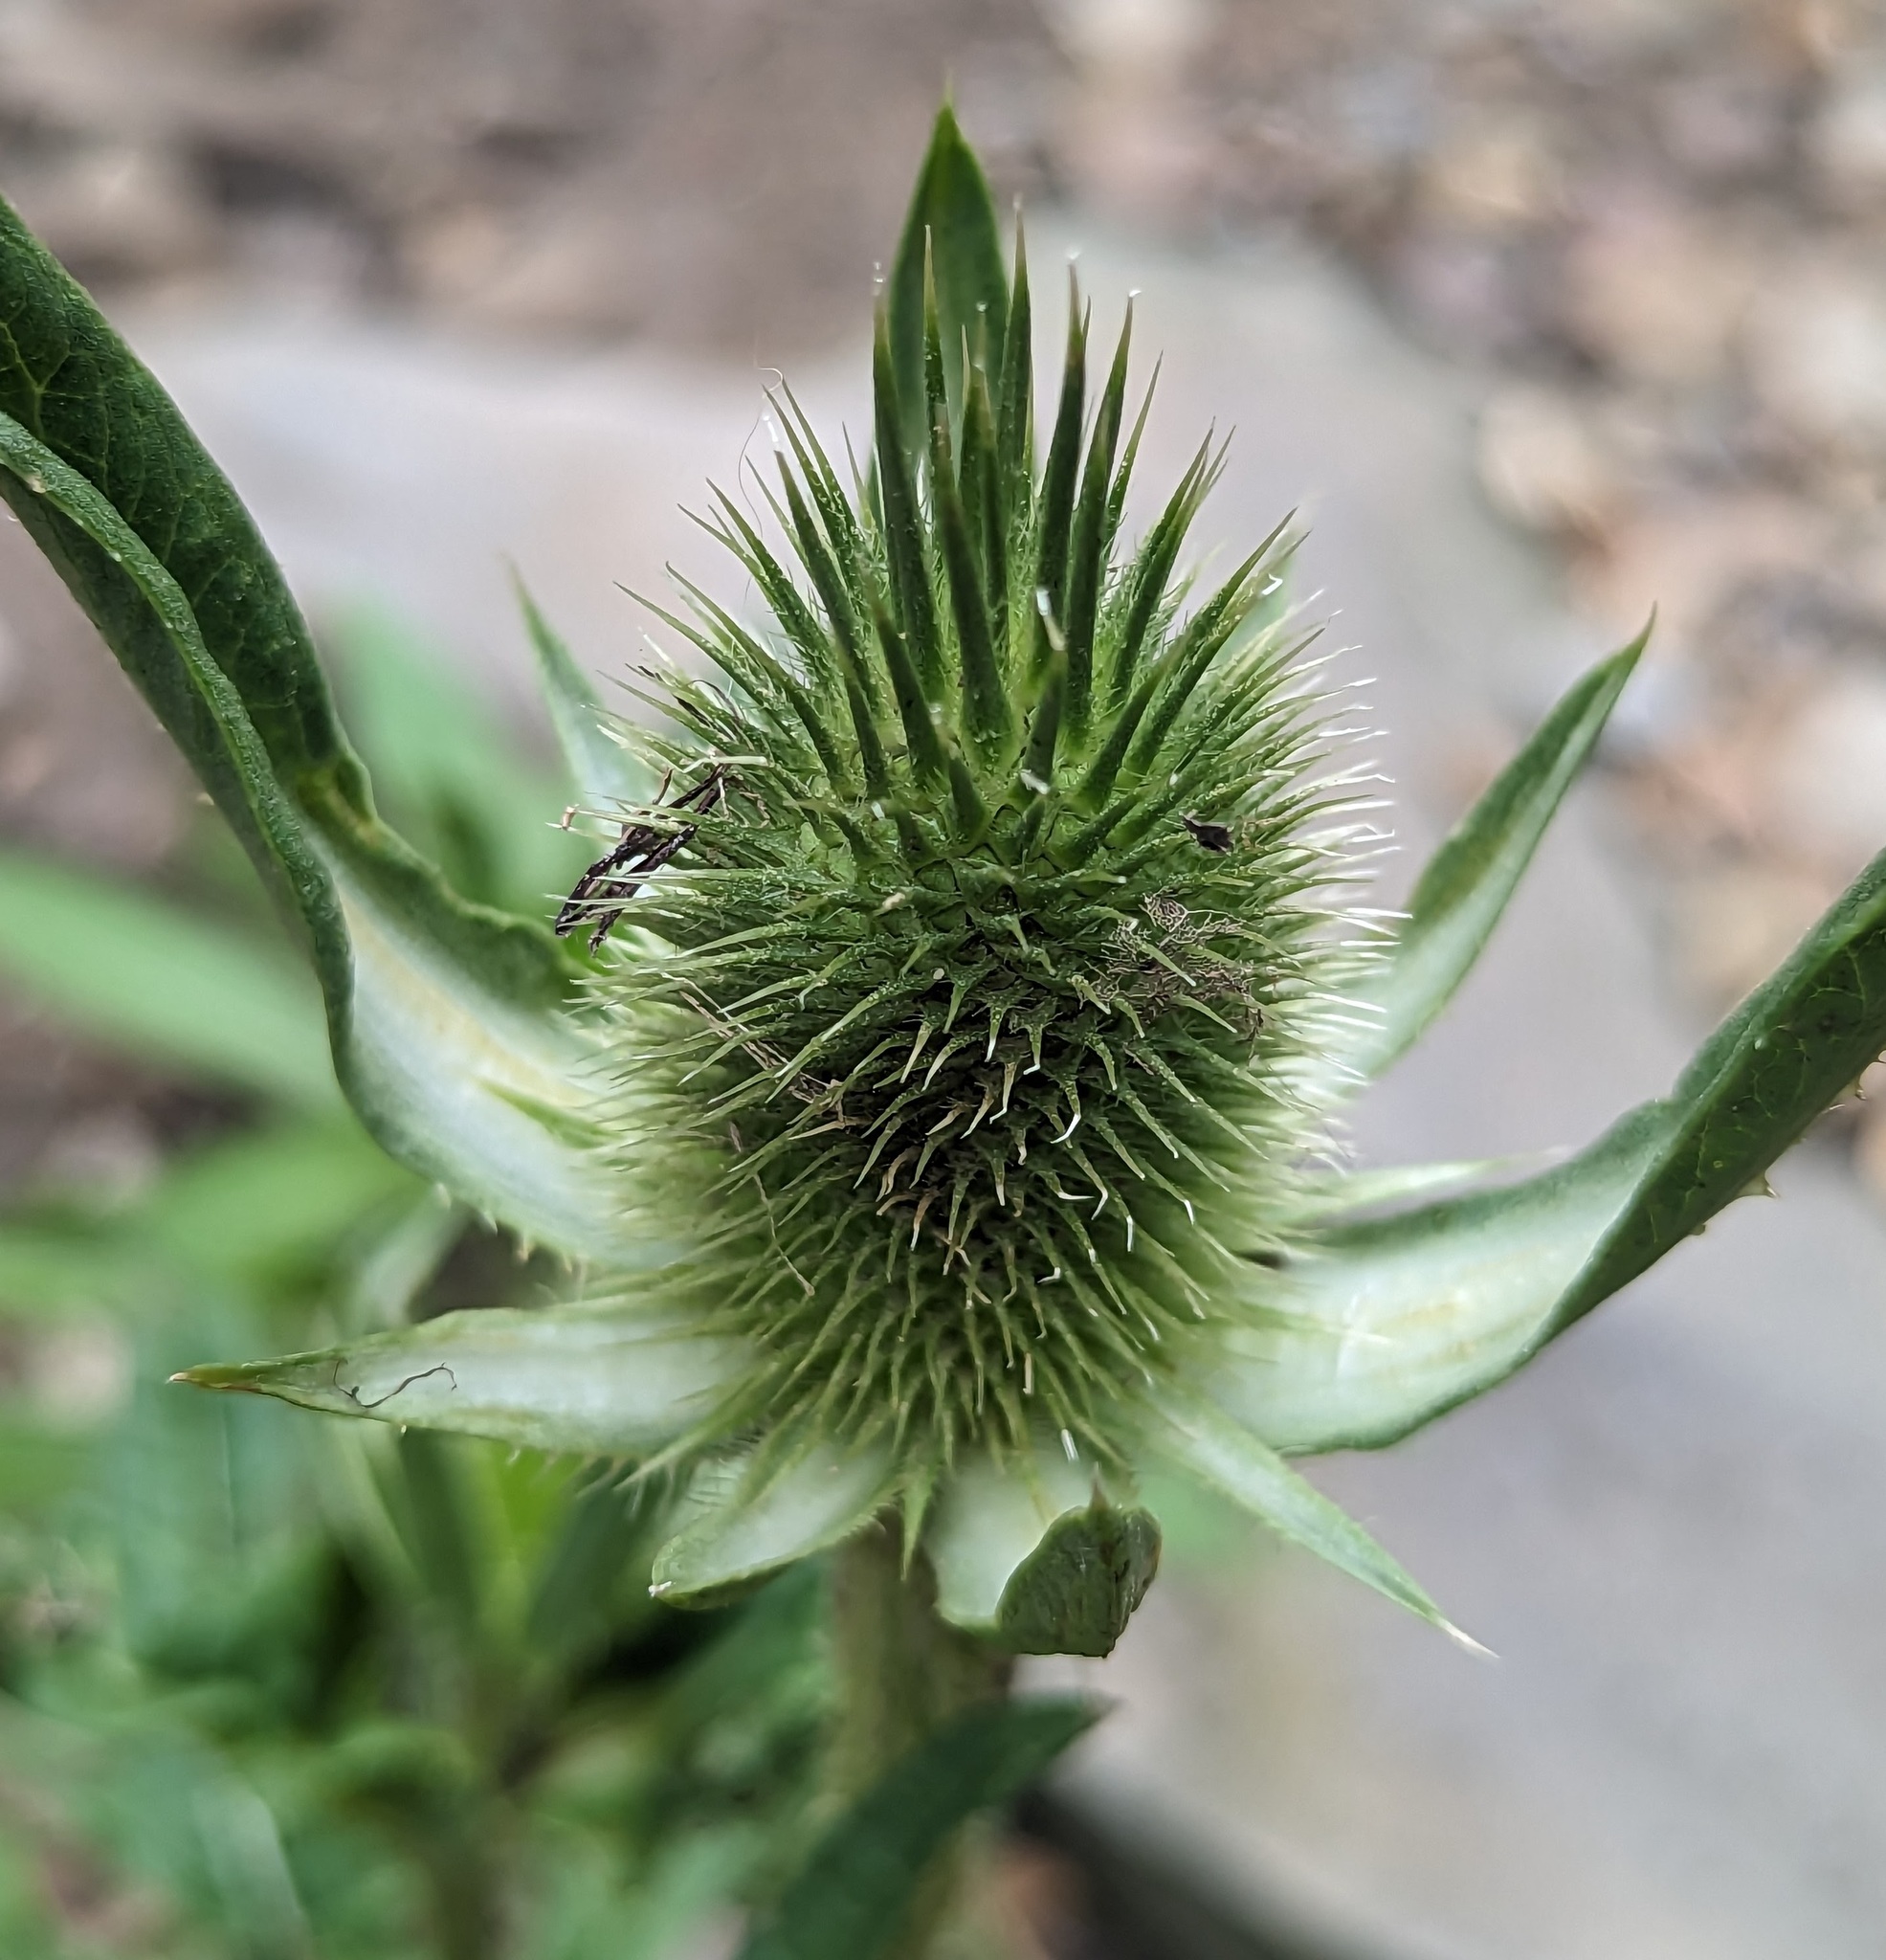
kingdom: Plantae
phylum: Tracheophyta
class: Magnoliopsida
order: Dipsacales
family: Caprifoliaceae
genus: Dipsacus
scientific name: Dipsacus laciniatus
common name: Cut-leaved teasel
